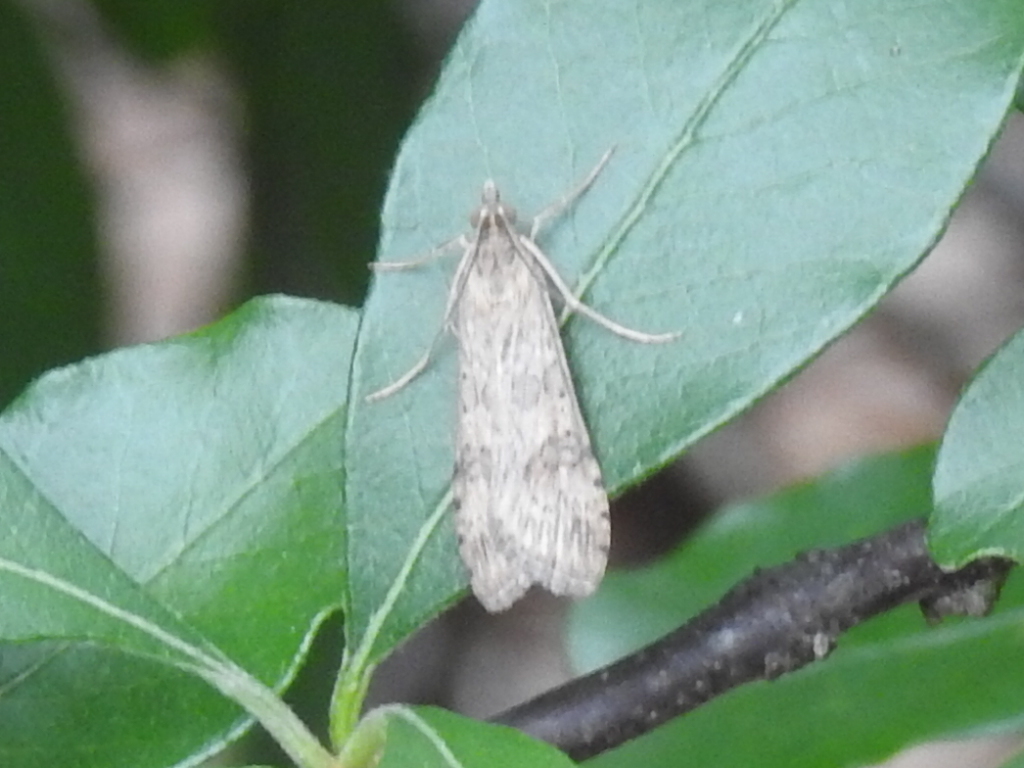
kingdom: Animalia
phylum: Arthropoda
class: Insecta
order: Lepidoptera
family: Crambidae
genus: Nomophila
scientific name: Nomophila nearctica
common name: American rush veneer
